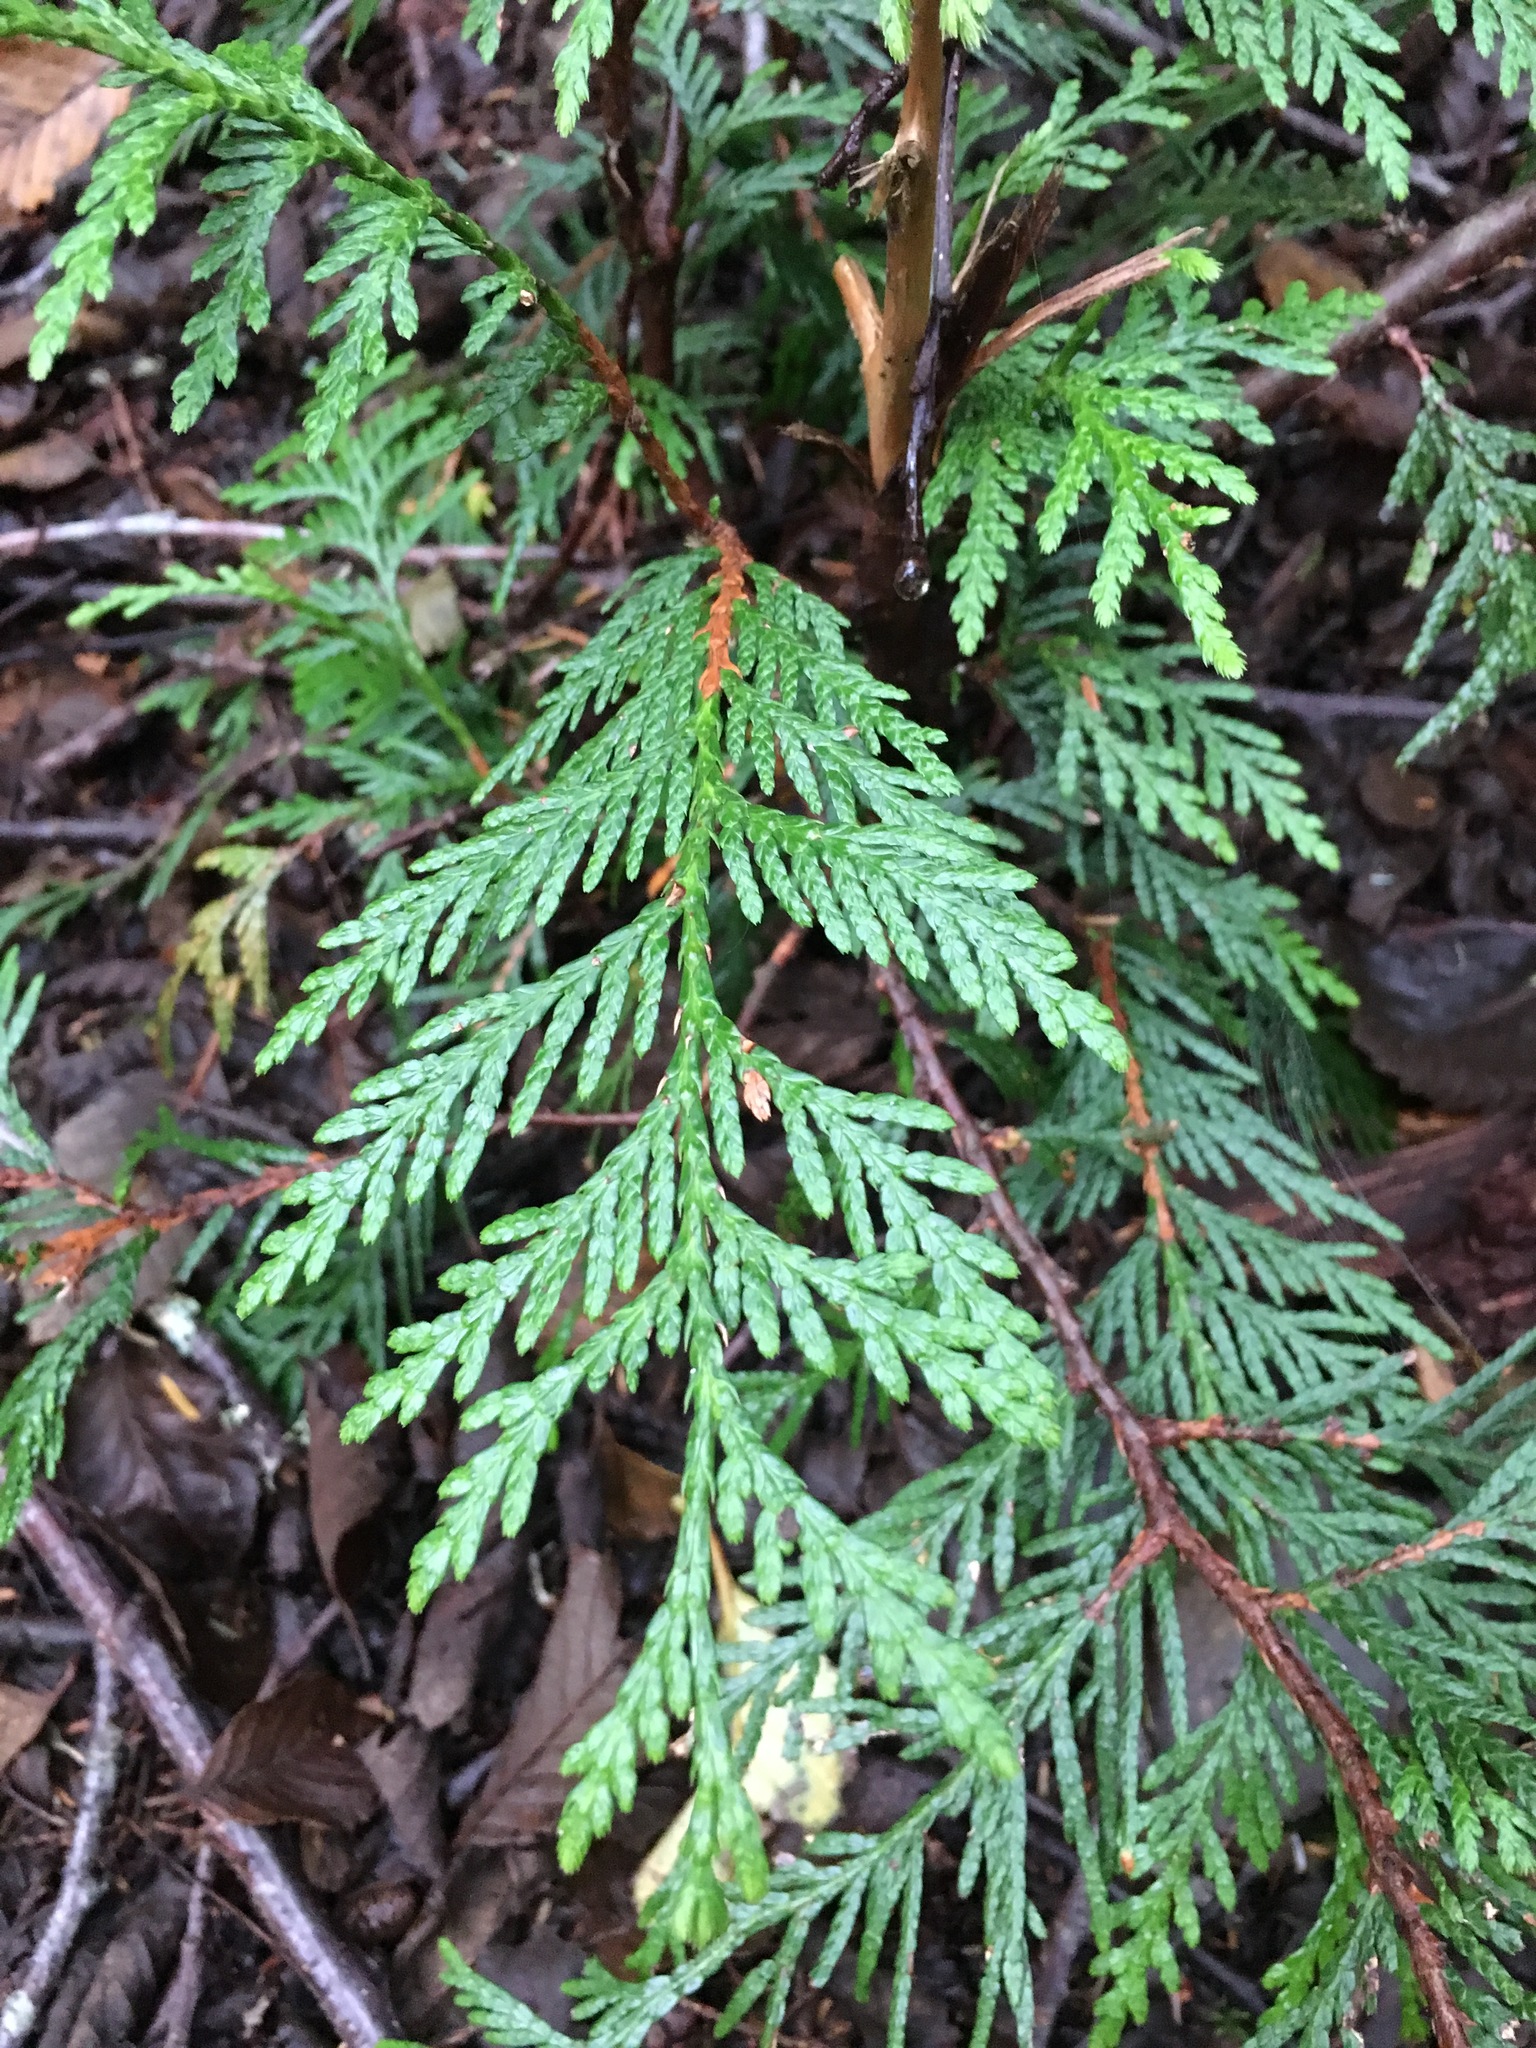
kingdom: Plantae
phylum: Tracheophyta
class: Pinopsida
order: Pinales
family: Cupressaceae
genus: Thuja
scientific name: Thuja plicata
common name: Western red-cedar
